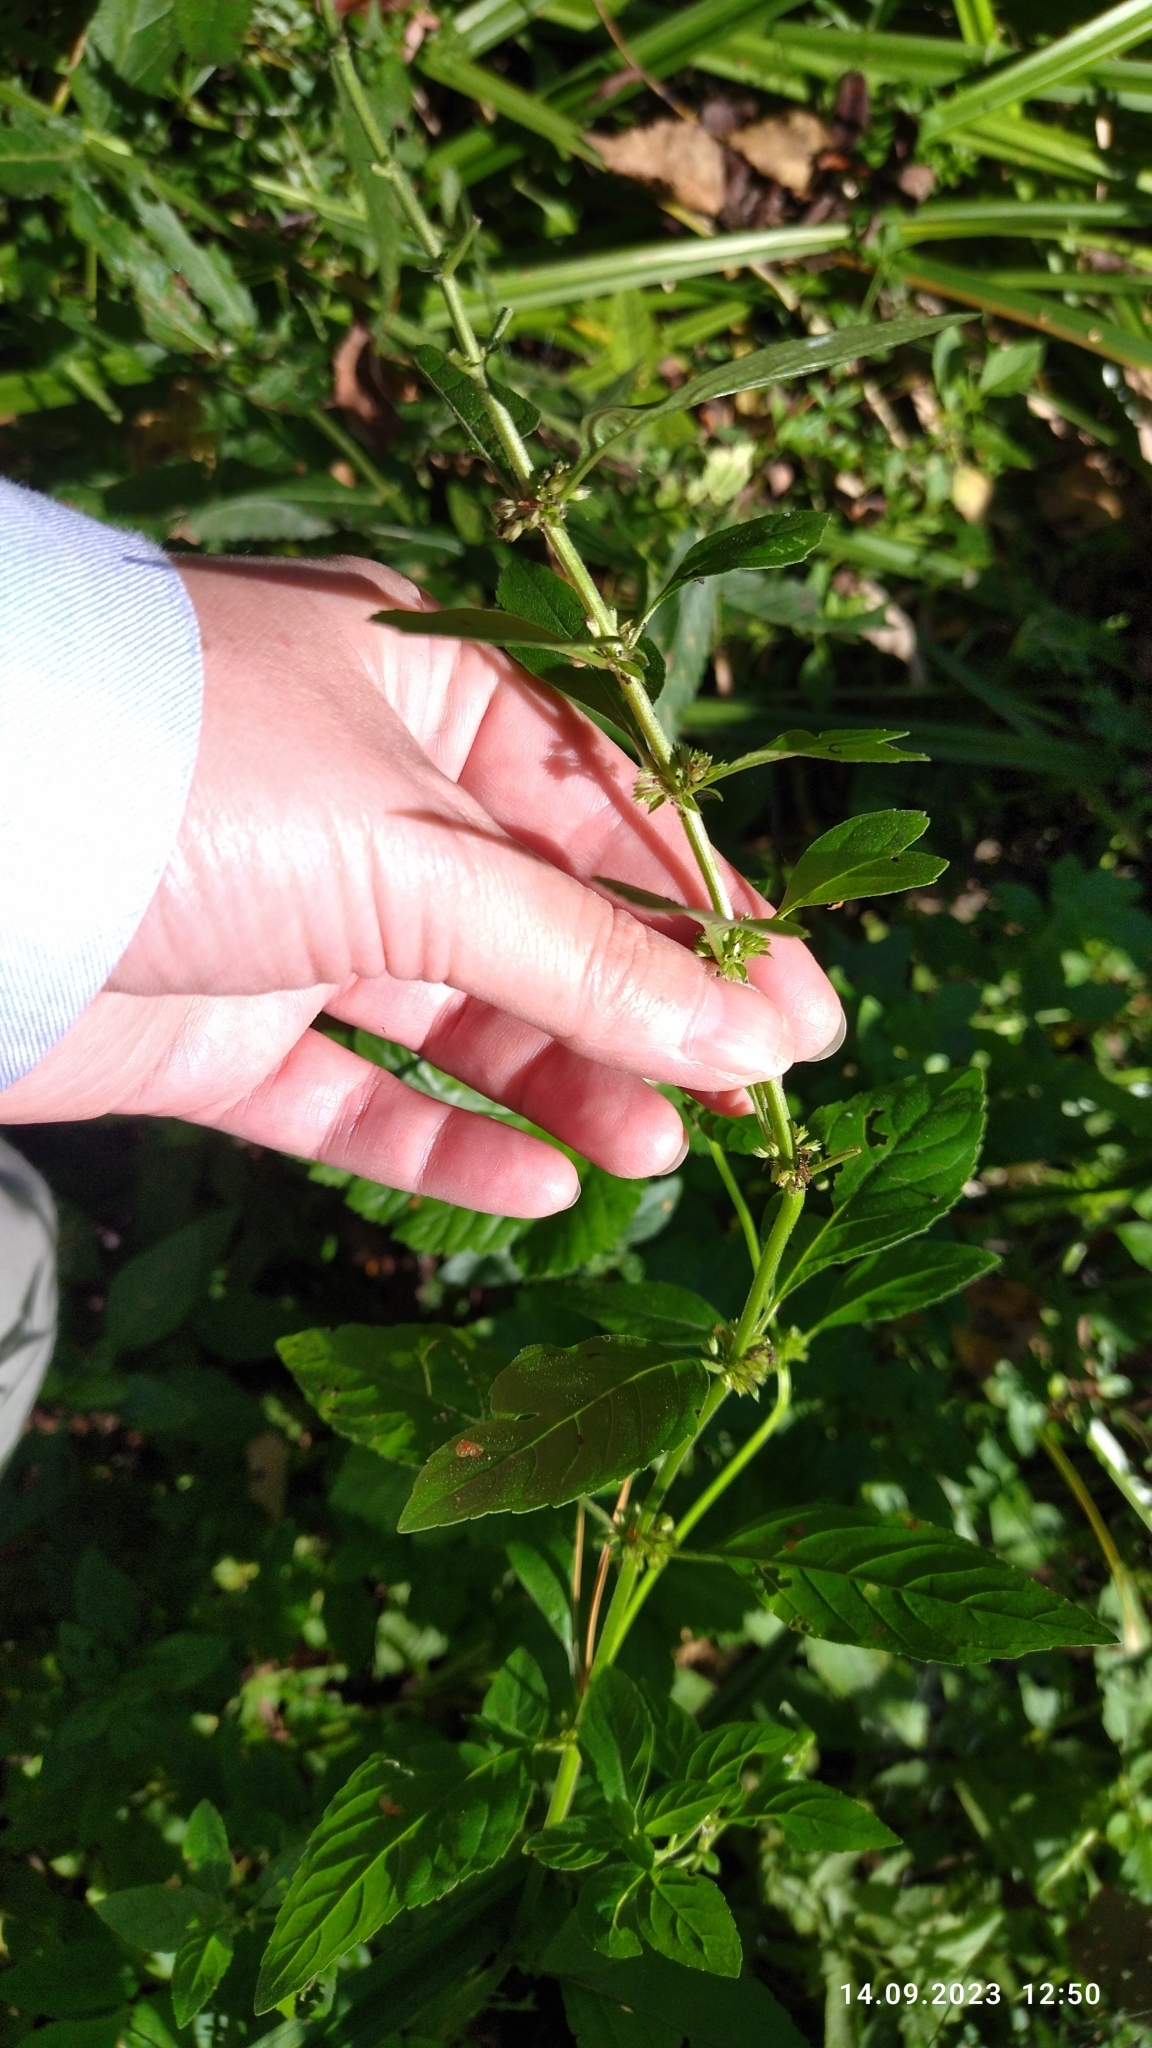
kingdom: Plantae
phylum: Tracheophyta
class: Magnoliopsida
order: Lamiales
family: Lamiaceae
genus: Mentha
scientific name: Mentha arvensis
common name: Corn mint
